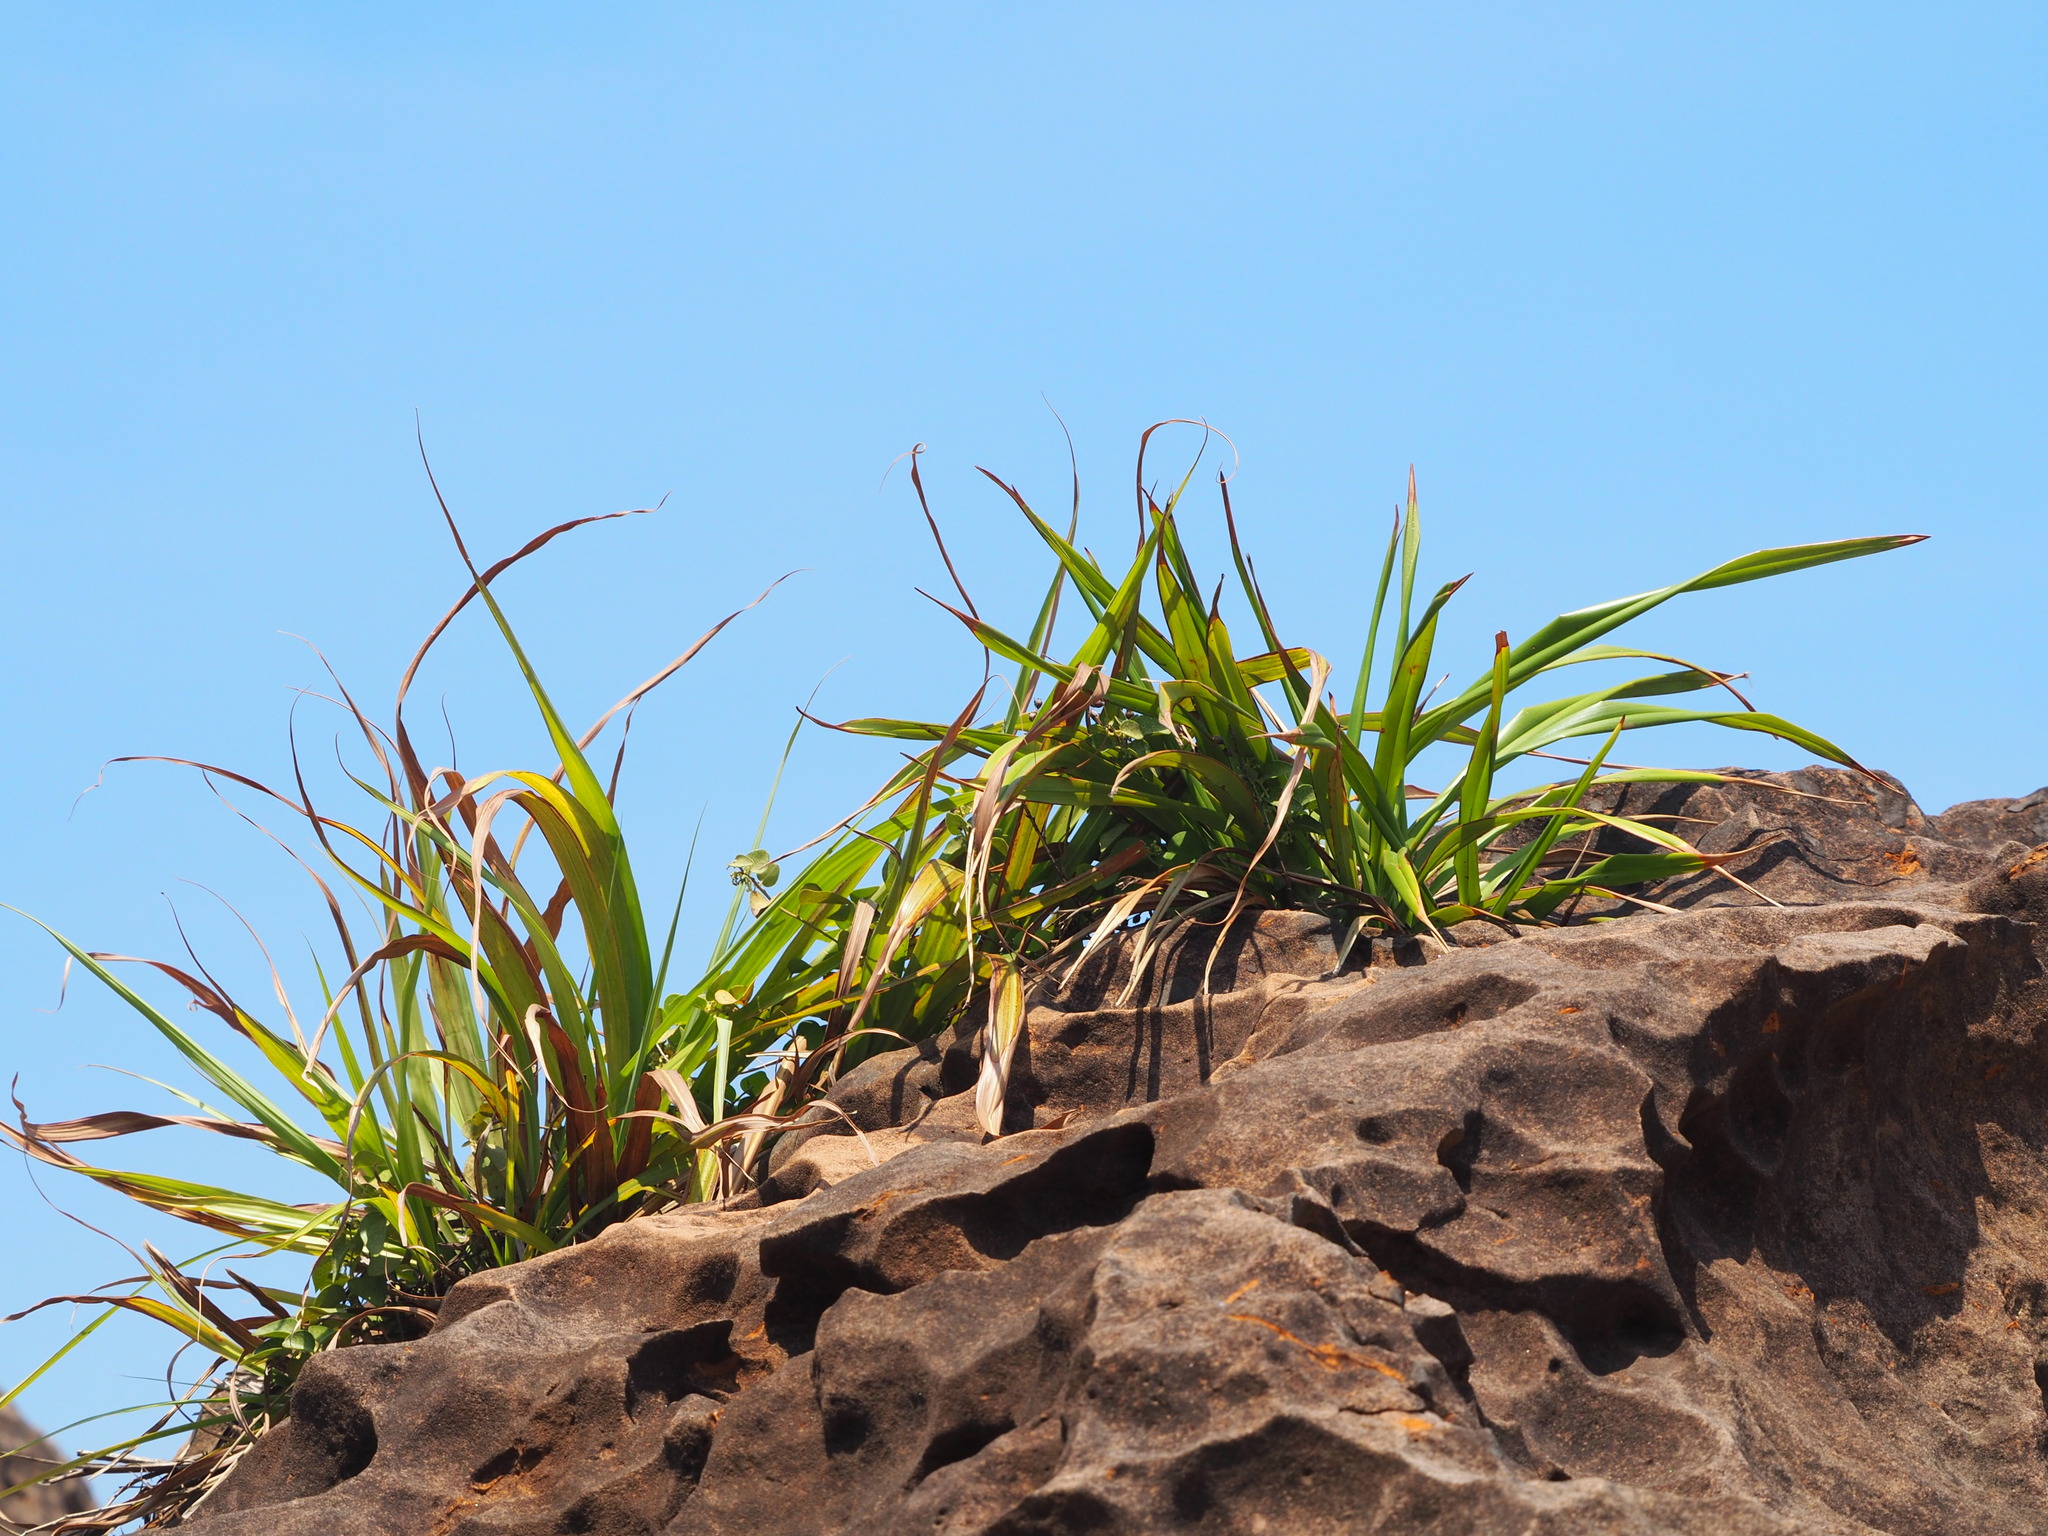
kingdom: Plantae
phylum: Tracheophyta
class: Liliopsida
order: Asparagales
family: Asphodelaceae
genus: Dianella
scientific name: Dianella ensifolia
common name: New zealand lilyplant
